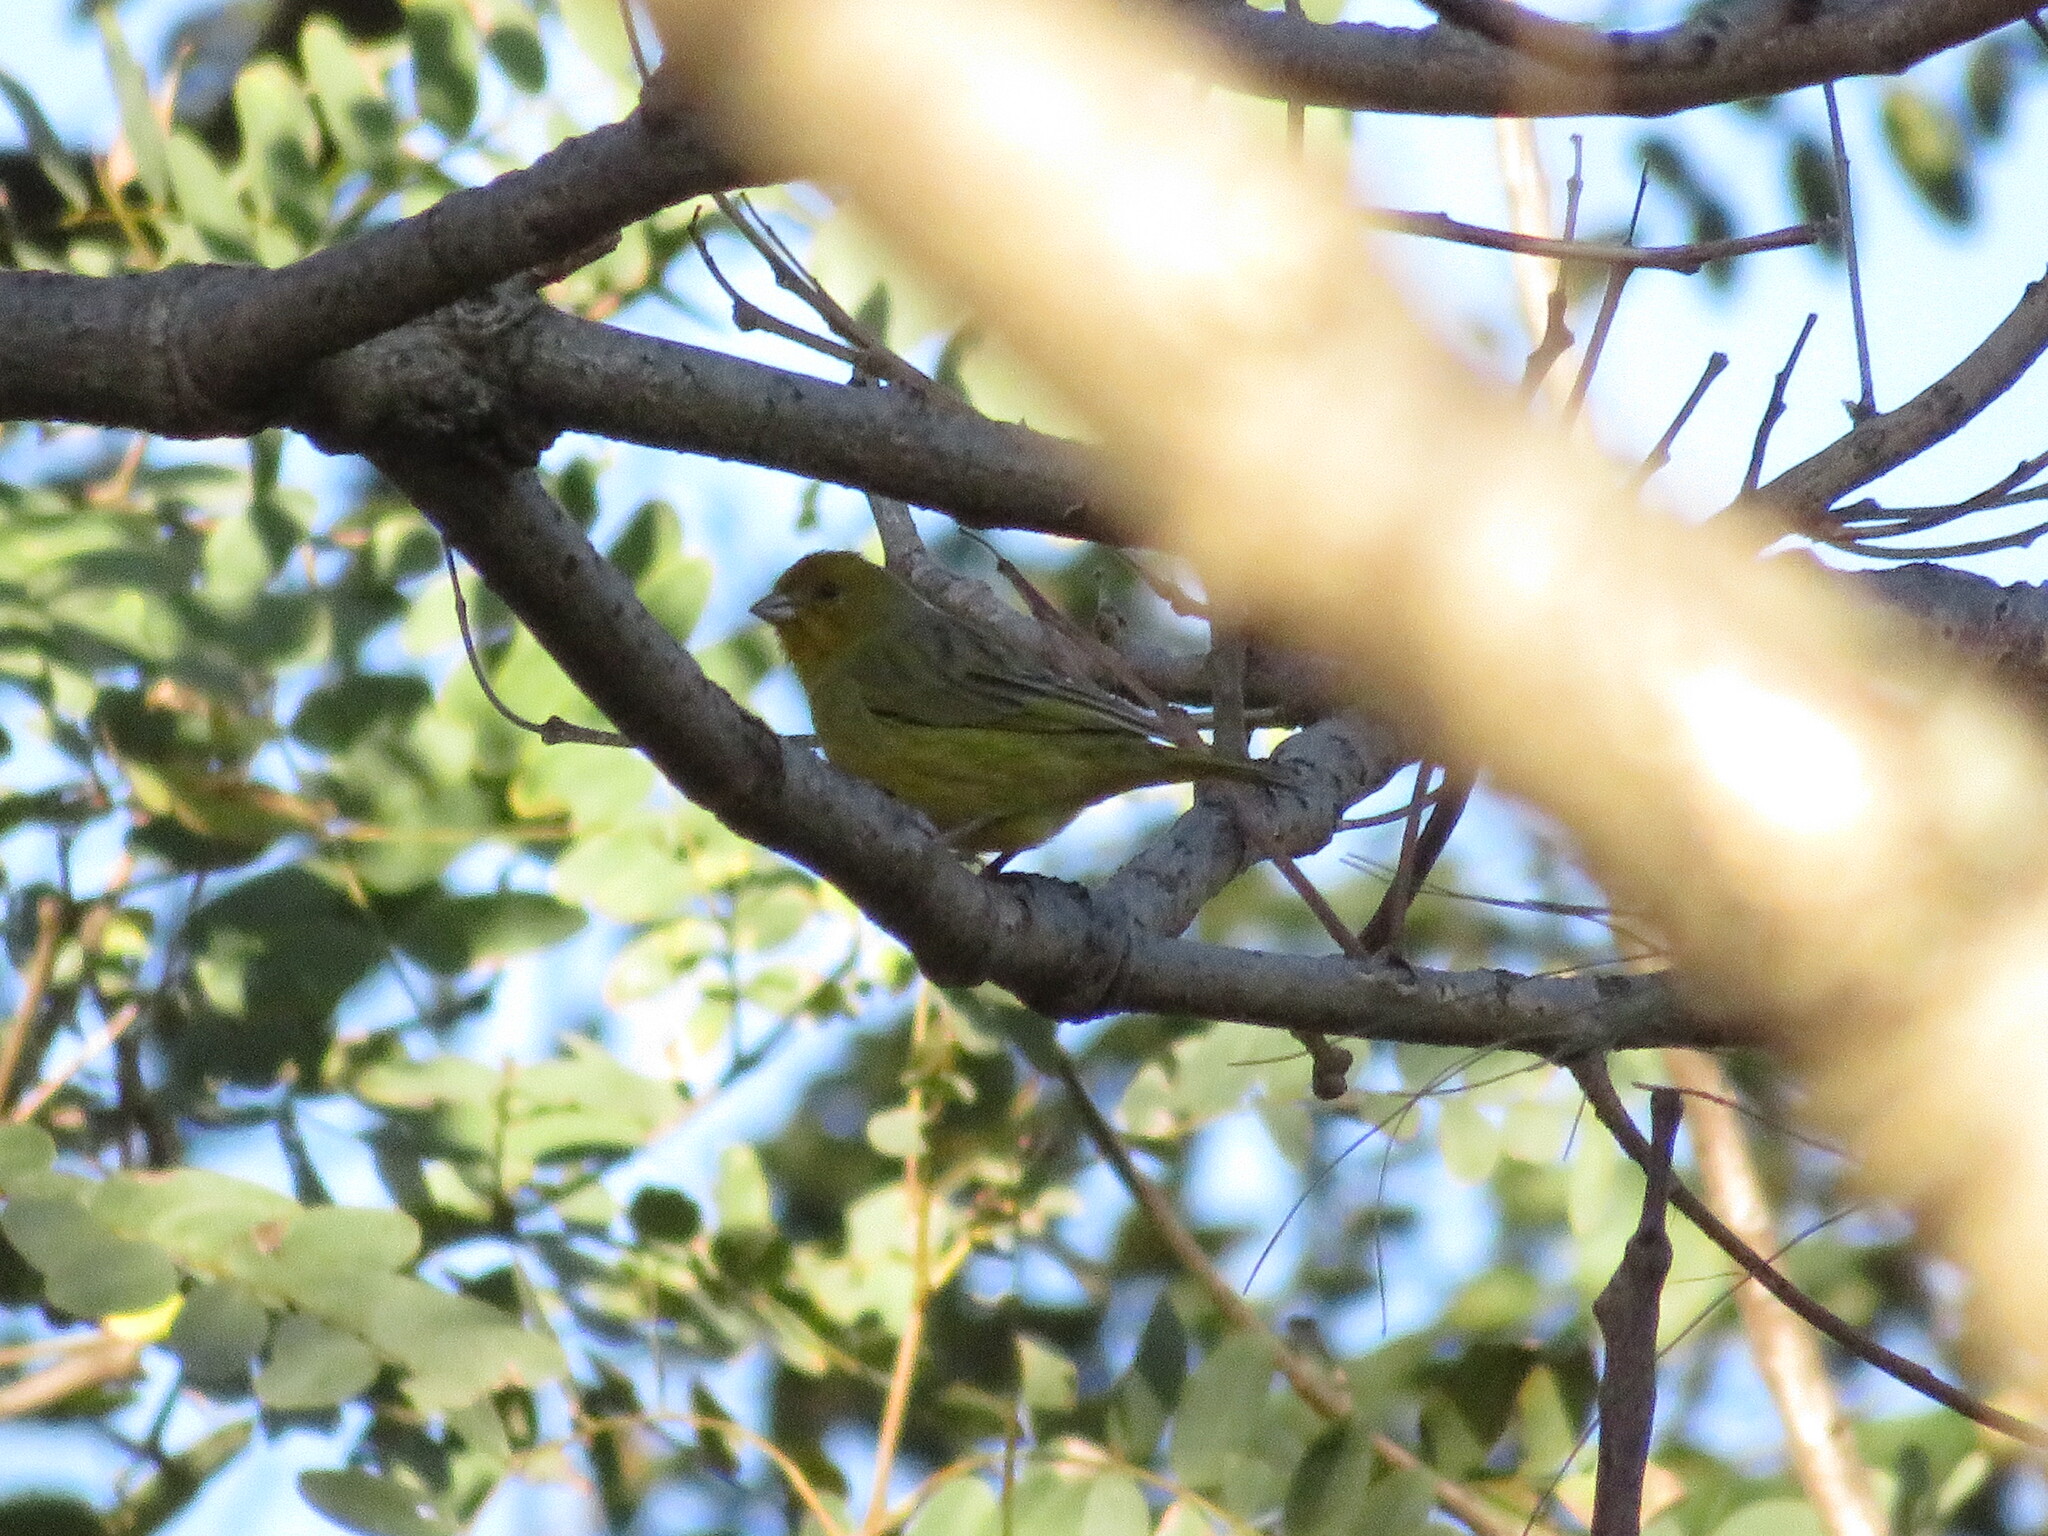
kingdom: Animalia
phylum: Chordata
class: Aves
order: Passeriformes
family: Thraupidae
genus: Sicalis
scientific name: Sicalis flaveola
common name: Saffron finch
